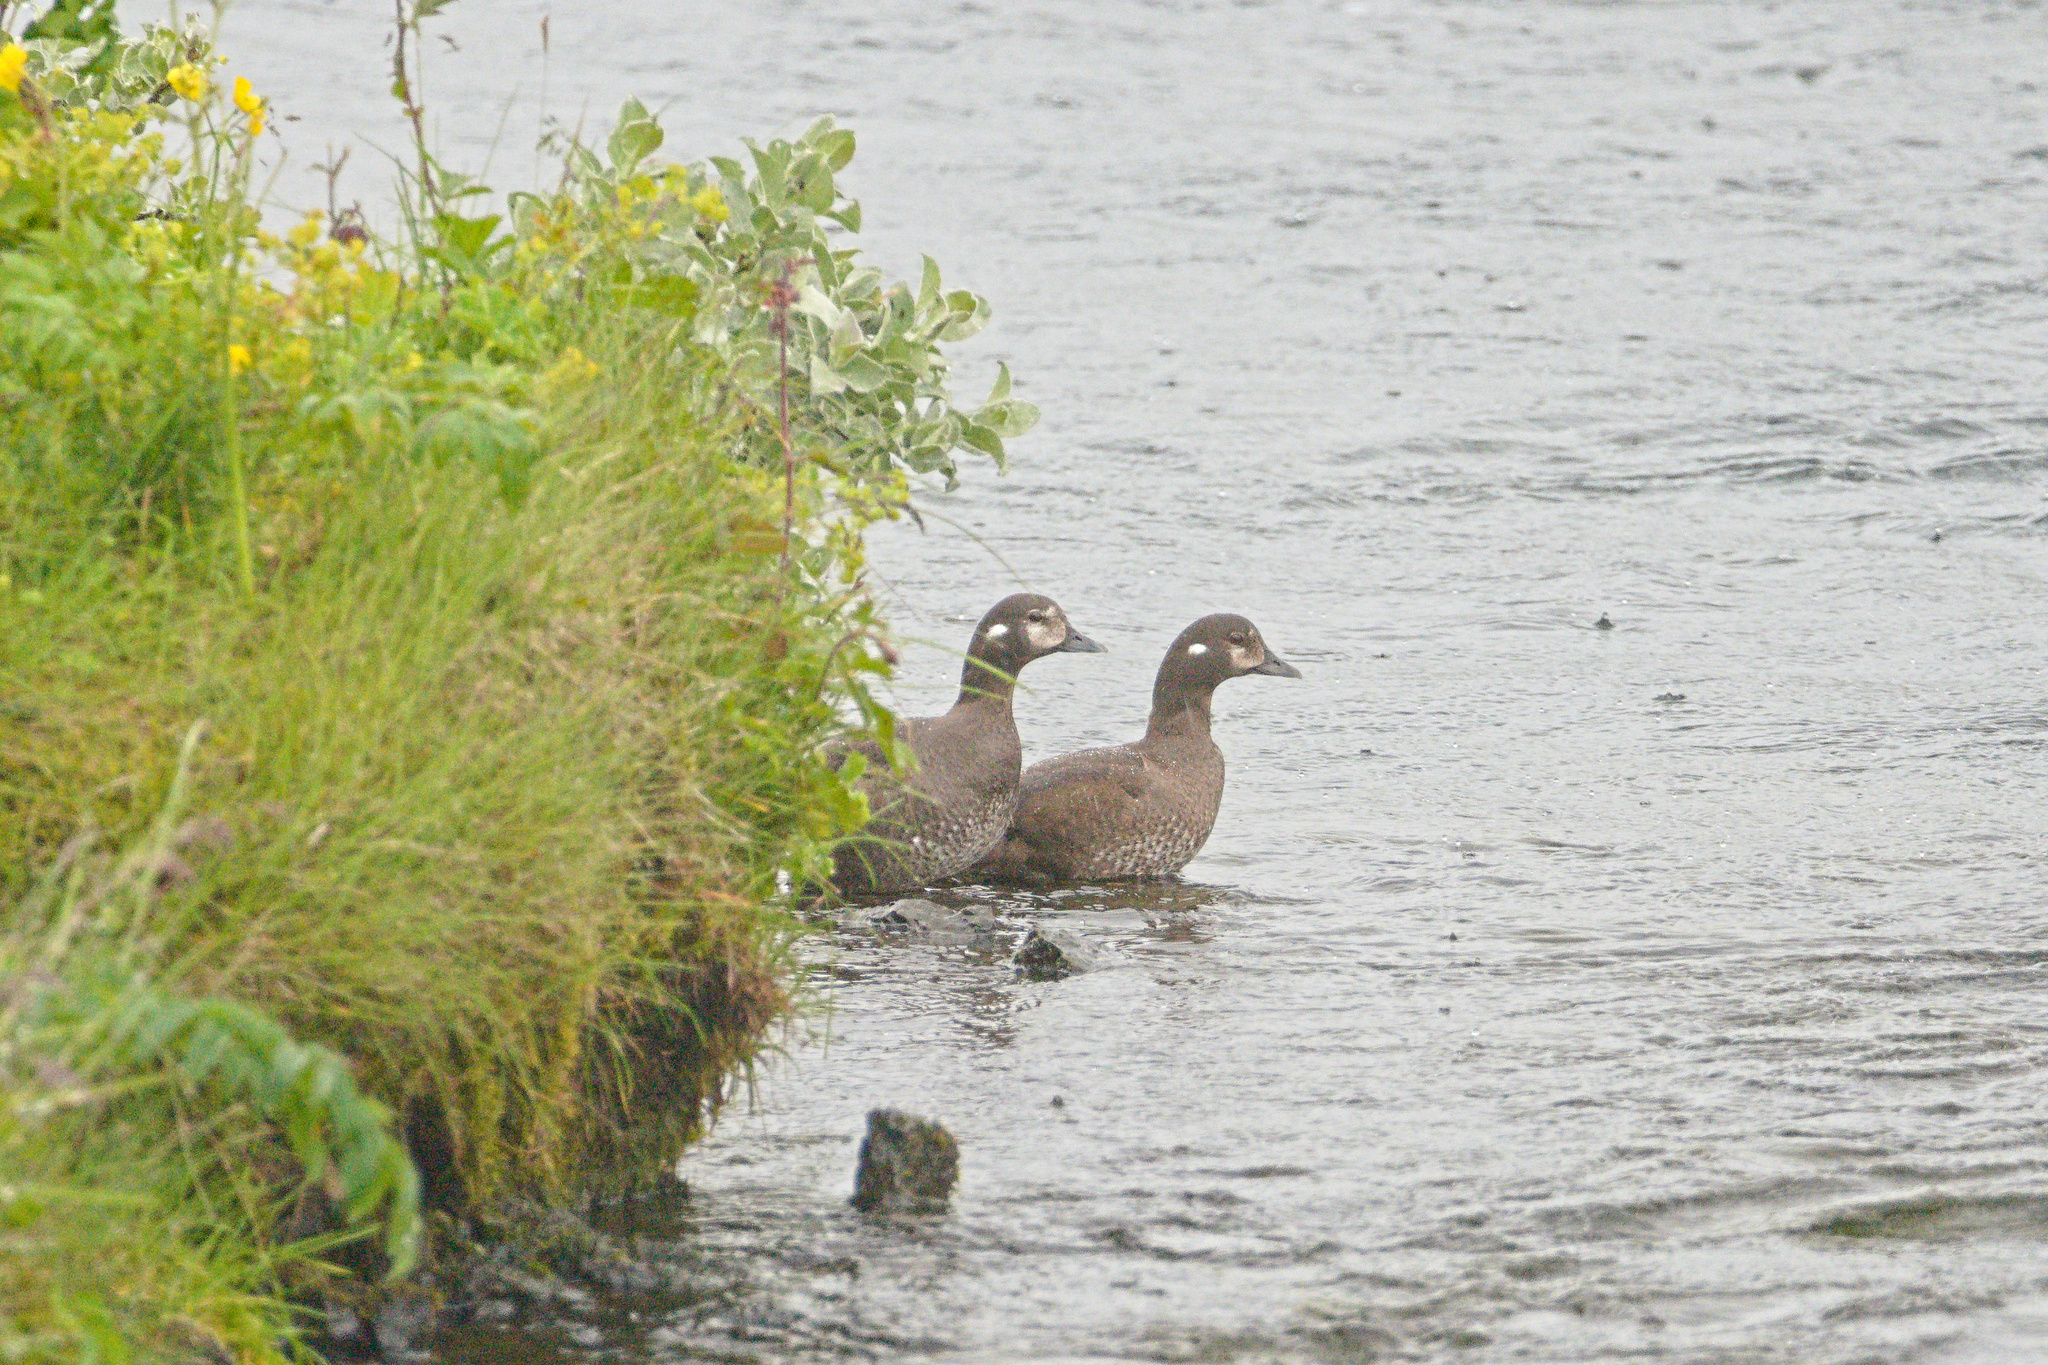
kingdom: Animalia
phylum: Chordata
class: Aves
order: Anseriformes
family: Anatidae
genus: Histrionicus
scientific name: Histrionicus histrionicus
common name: Harlequin duck
